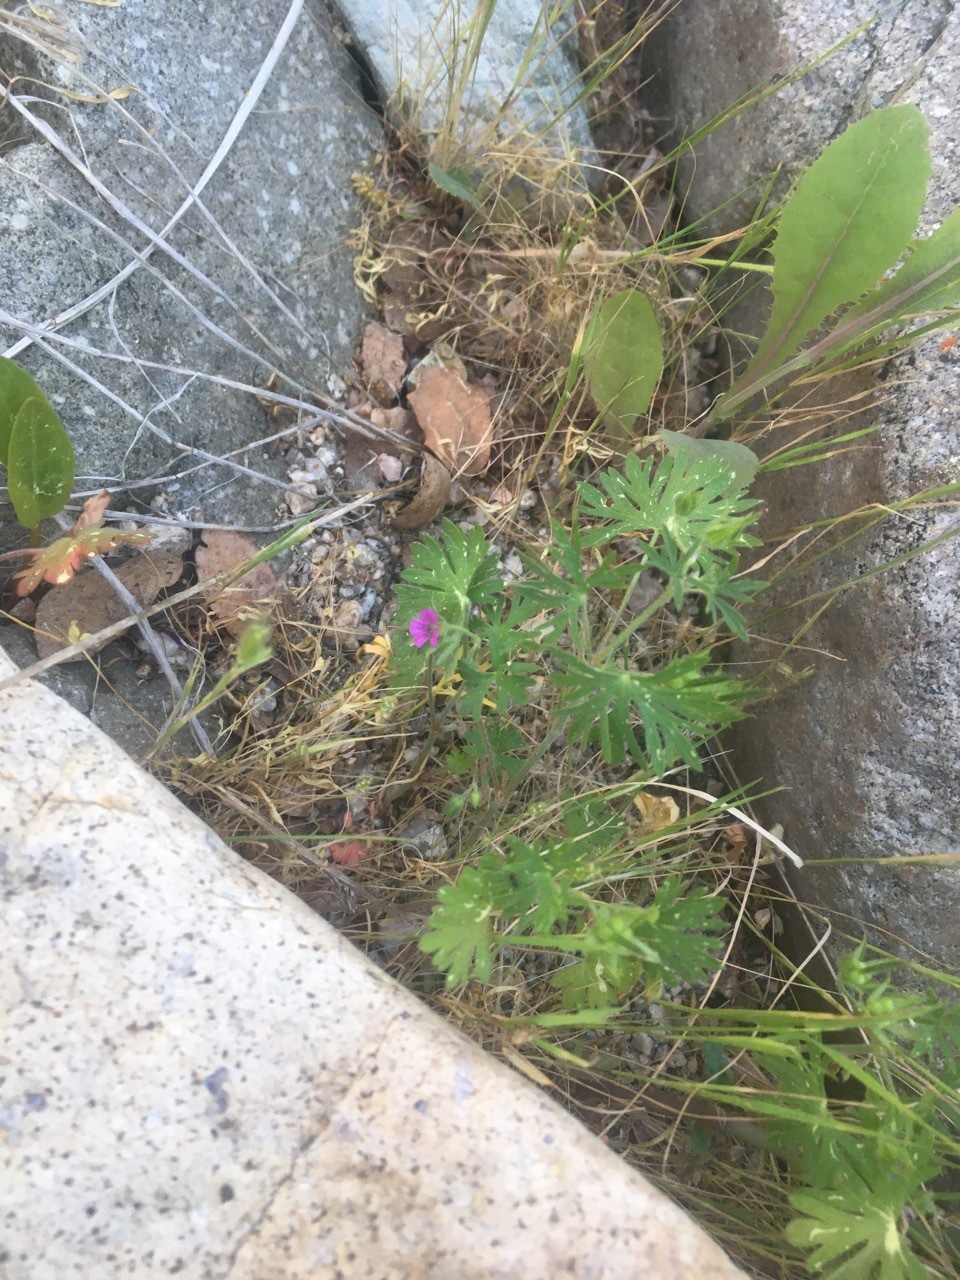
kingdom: Plantae
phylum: Tracheophyta
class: Magnoliopsida
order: Geraniales
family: Geraniaceae
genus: Geranium
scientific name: Geranium dissectum
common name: Cut-leaved crane's-bill
